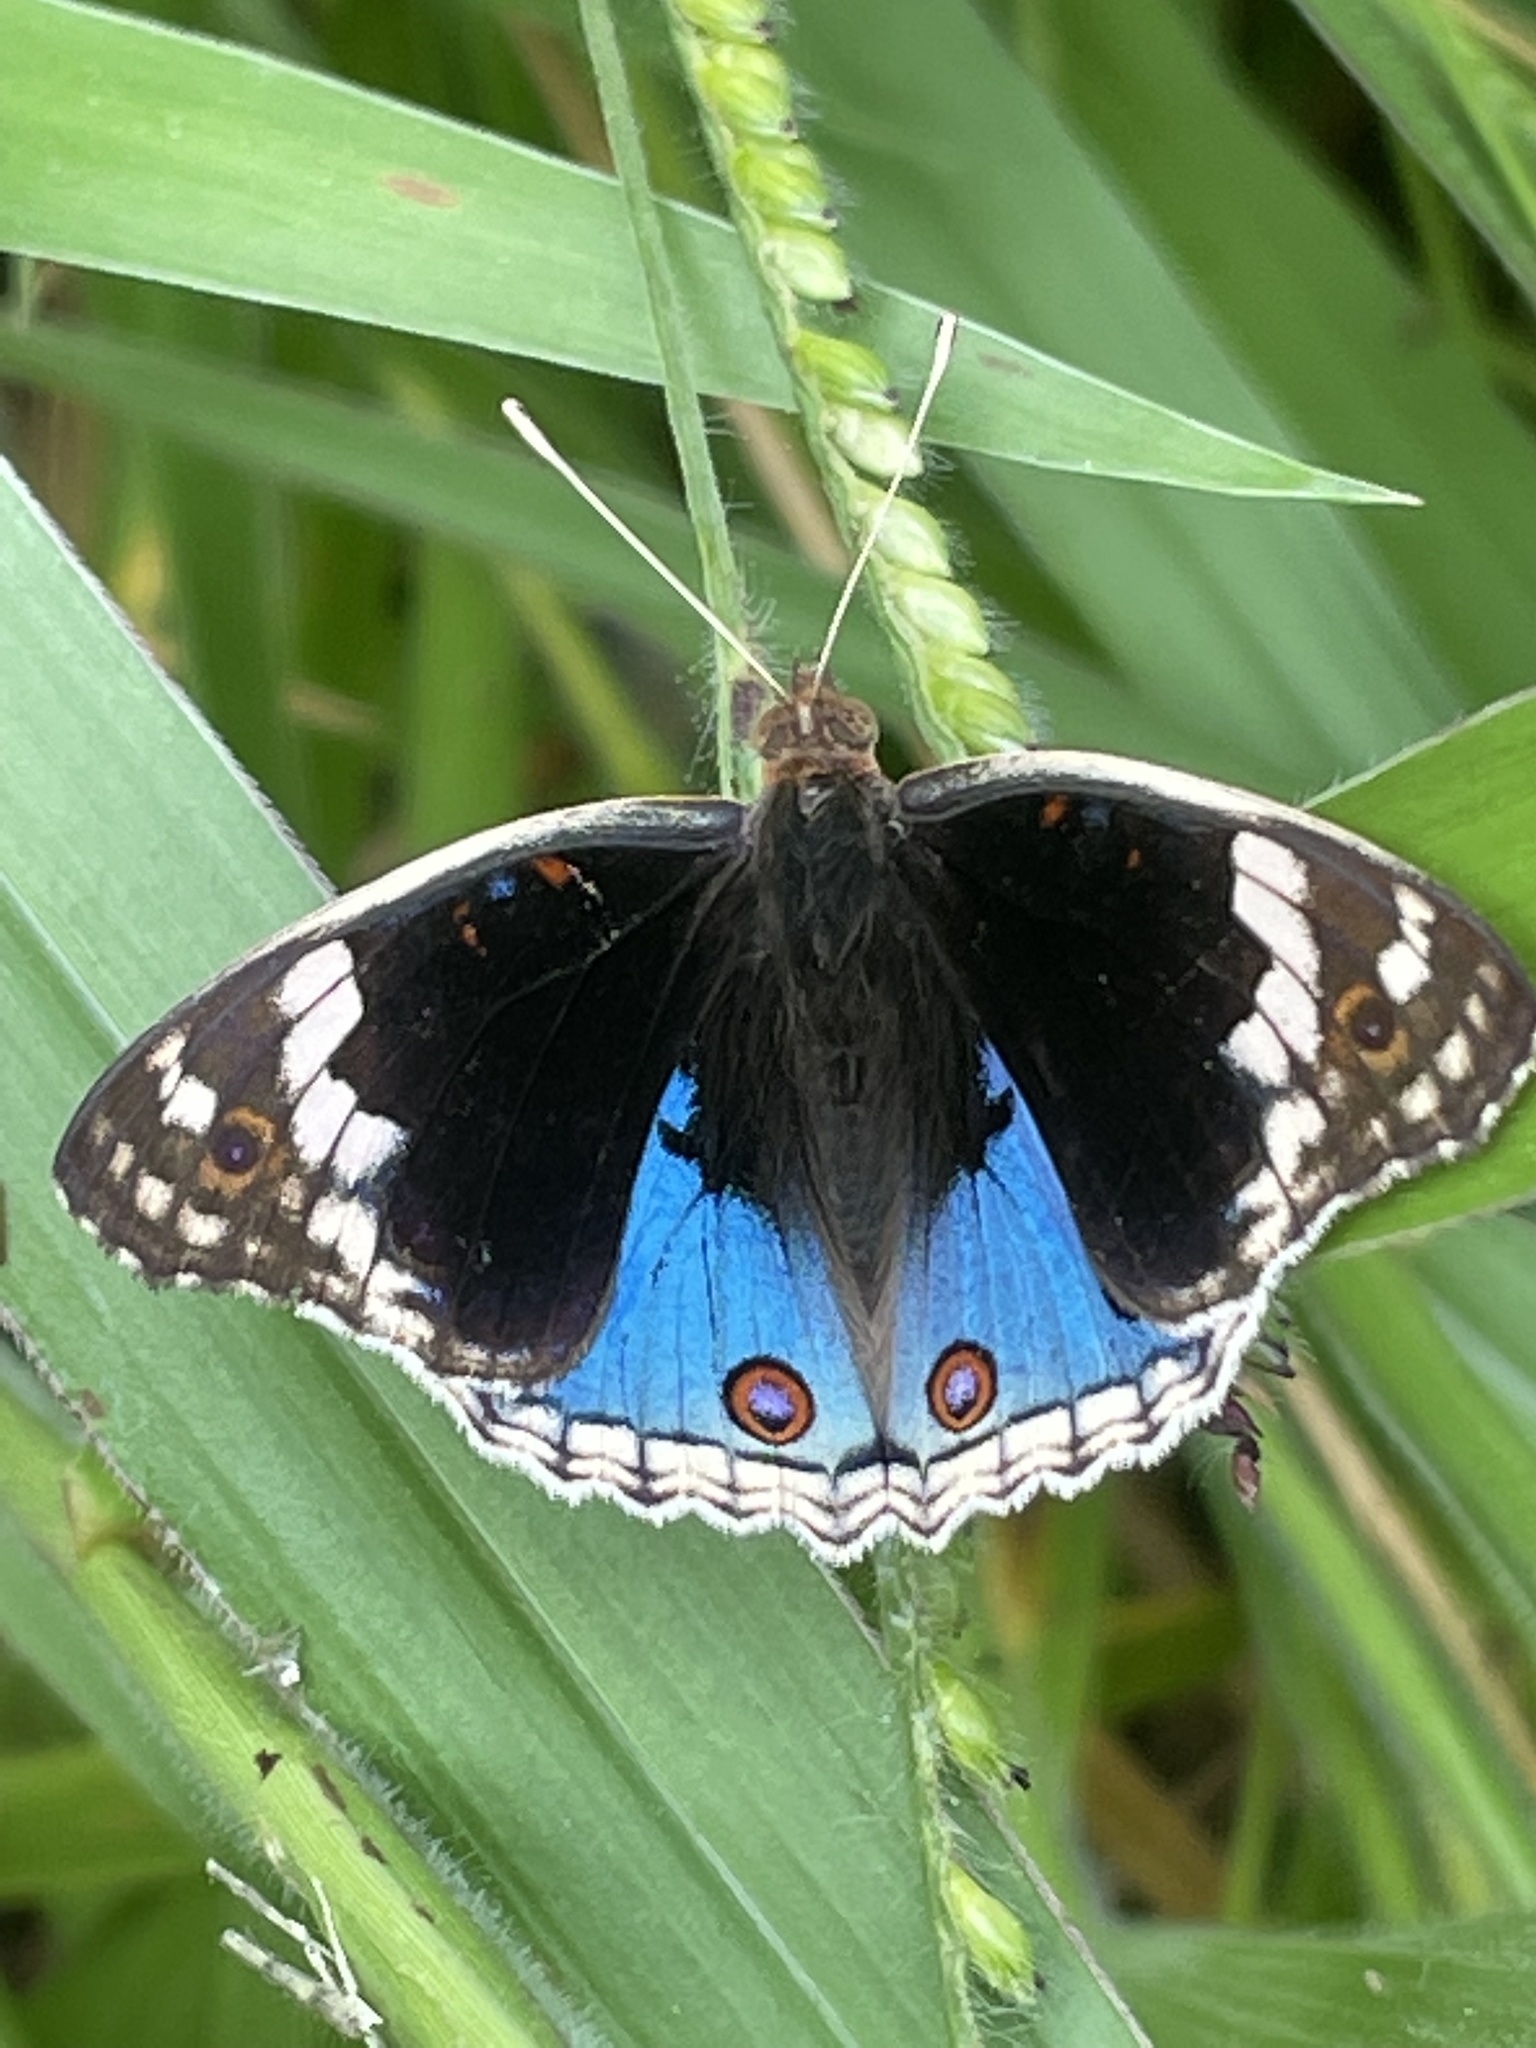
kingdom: Animalia
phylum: Arthropoda
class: Insecta
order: Lepidoptera
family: Nymphalidae
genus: Junonia
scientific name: Junonia orithya
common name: Blue pansy
